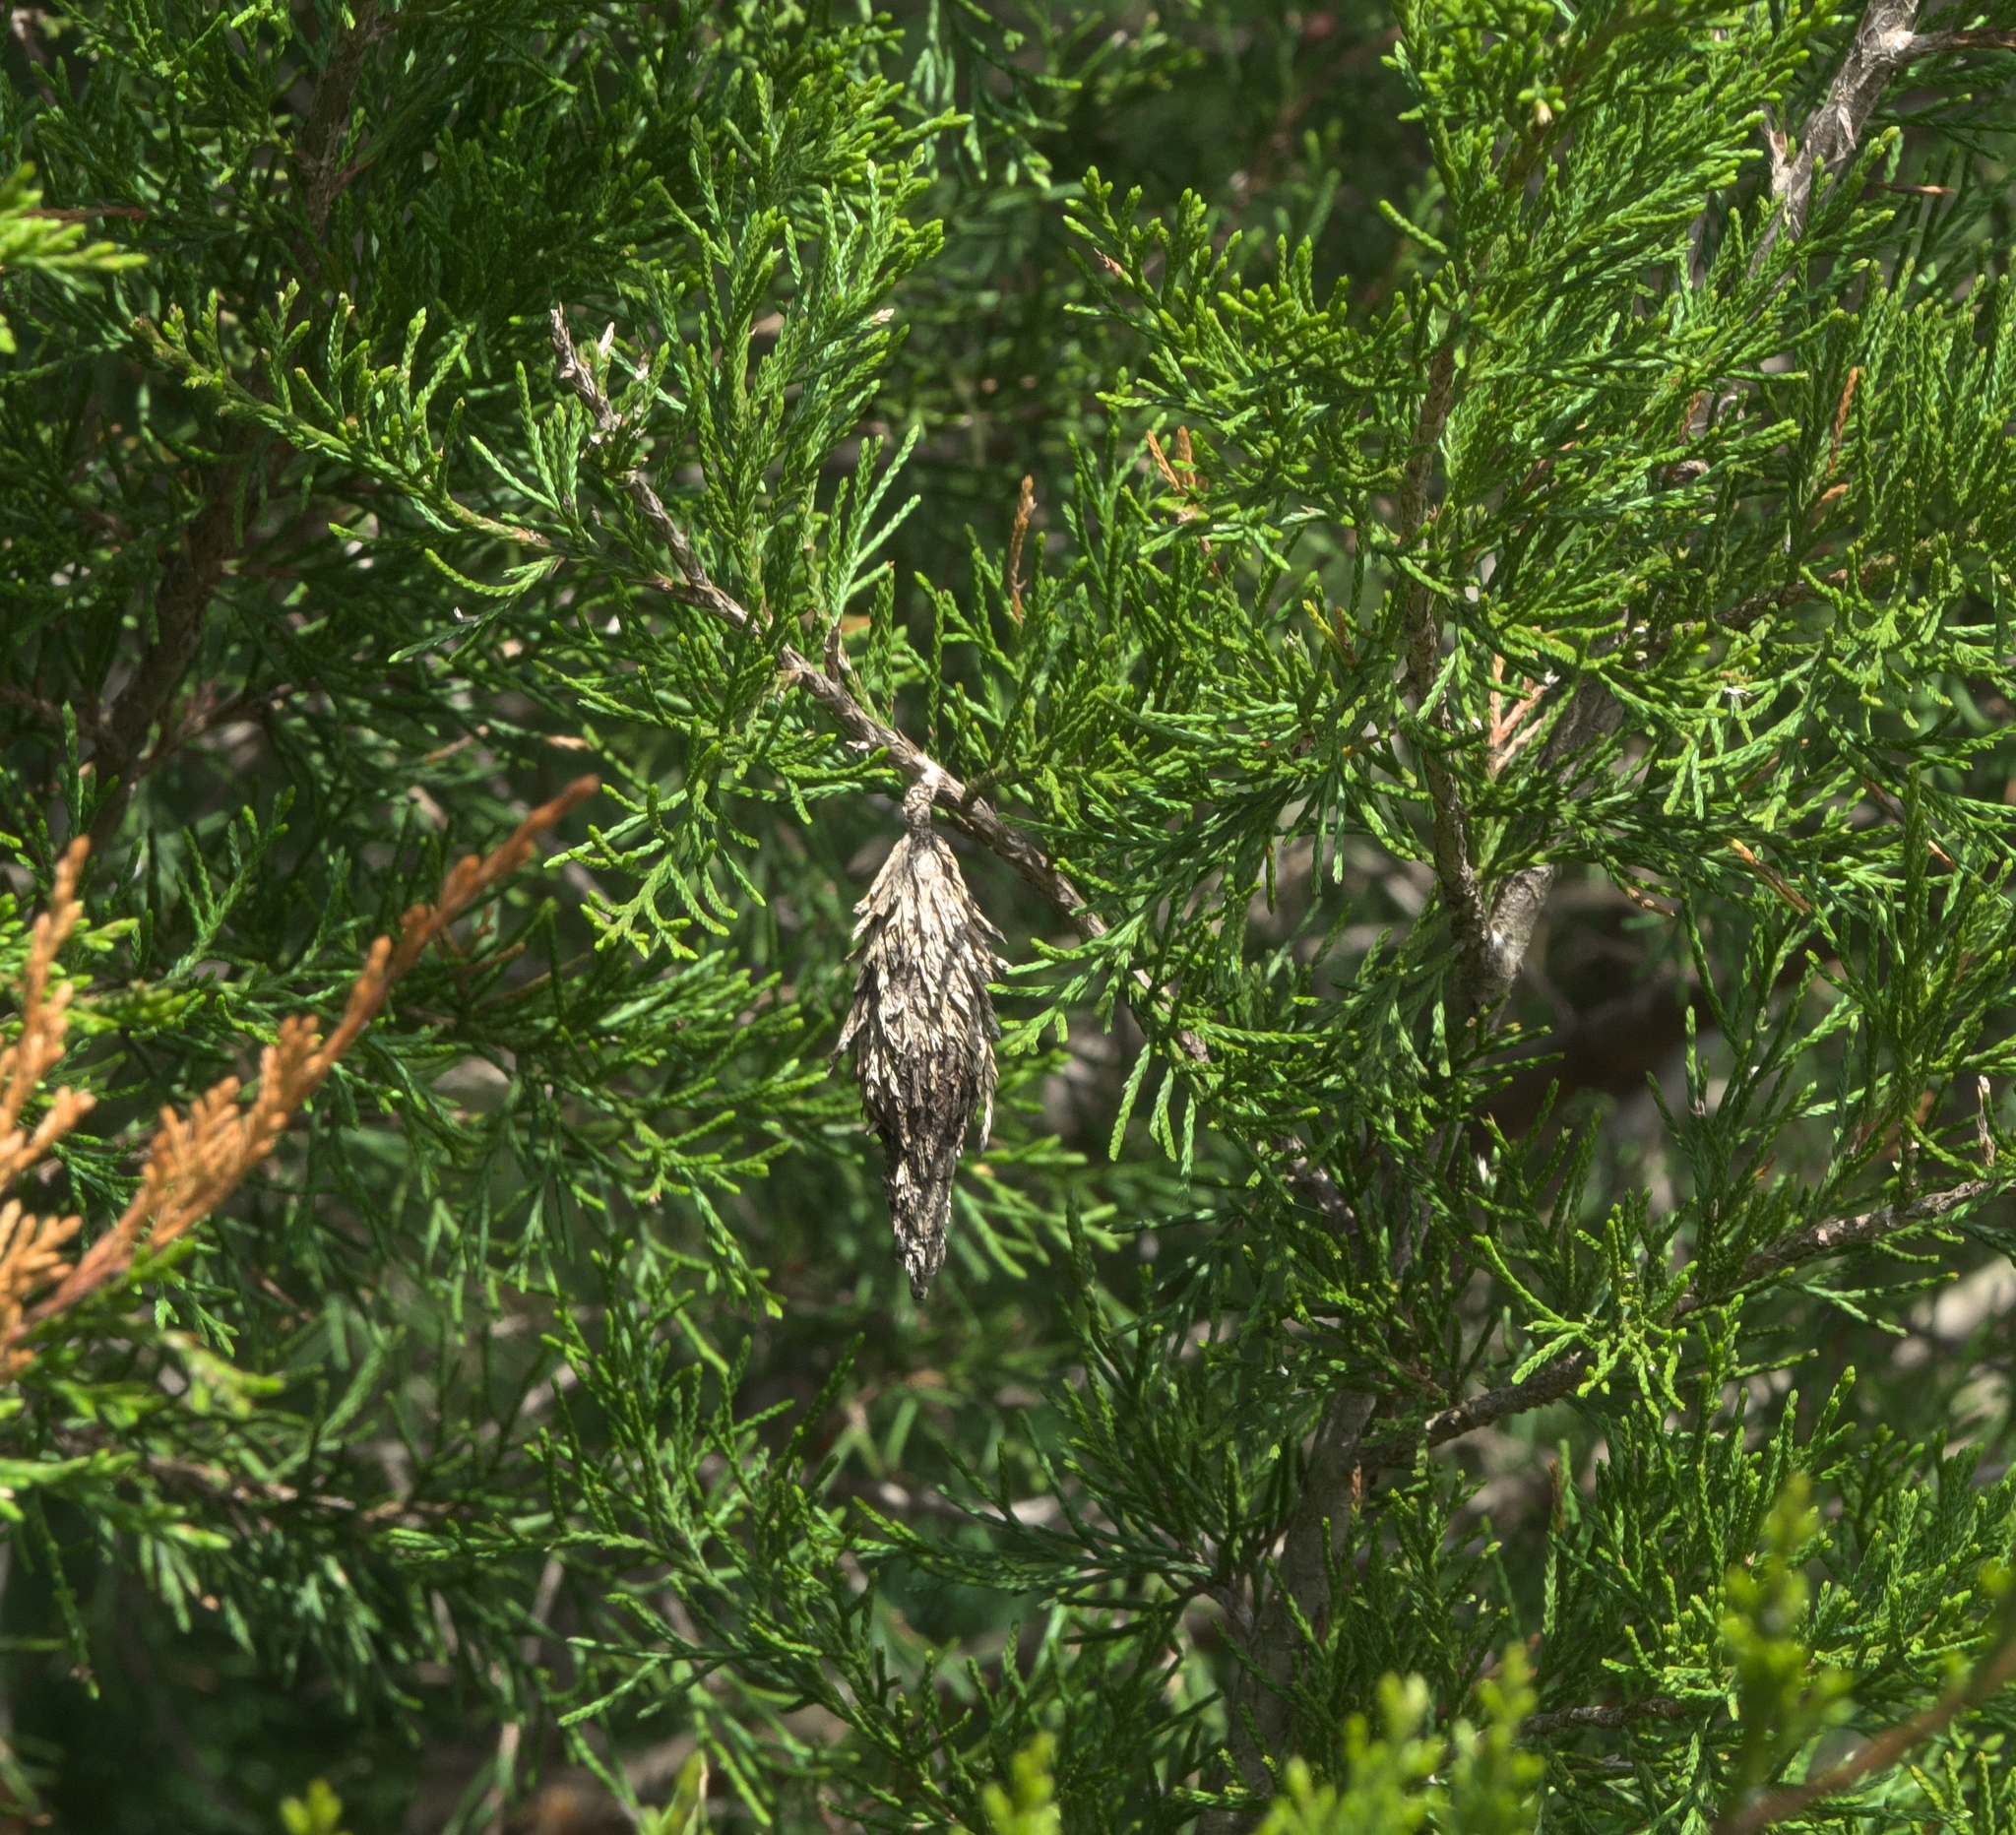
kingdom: Animalia
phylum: Arthropoda
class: Insecta
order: Lepidoptera
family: Psychidae
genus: Thyridopteryx
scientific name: Thyridopteryx ephemeraeformis
